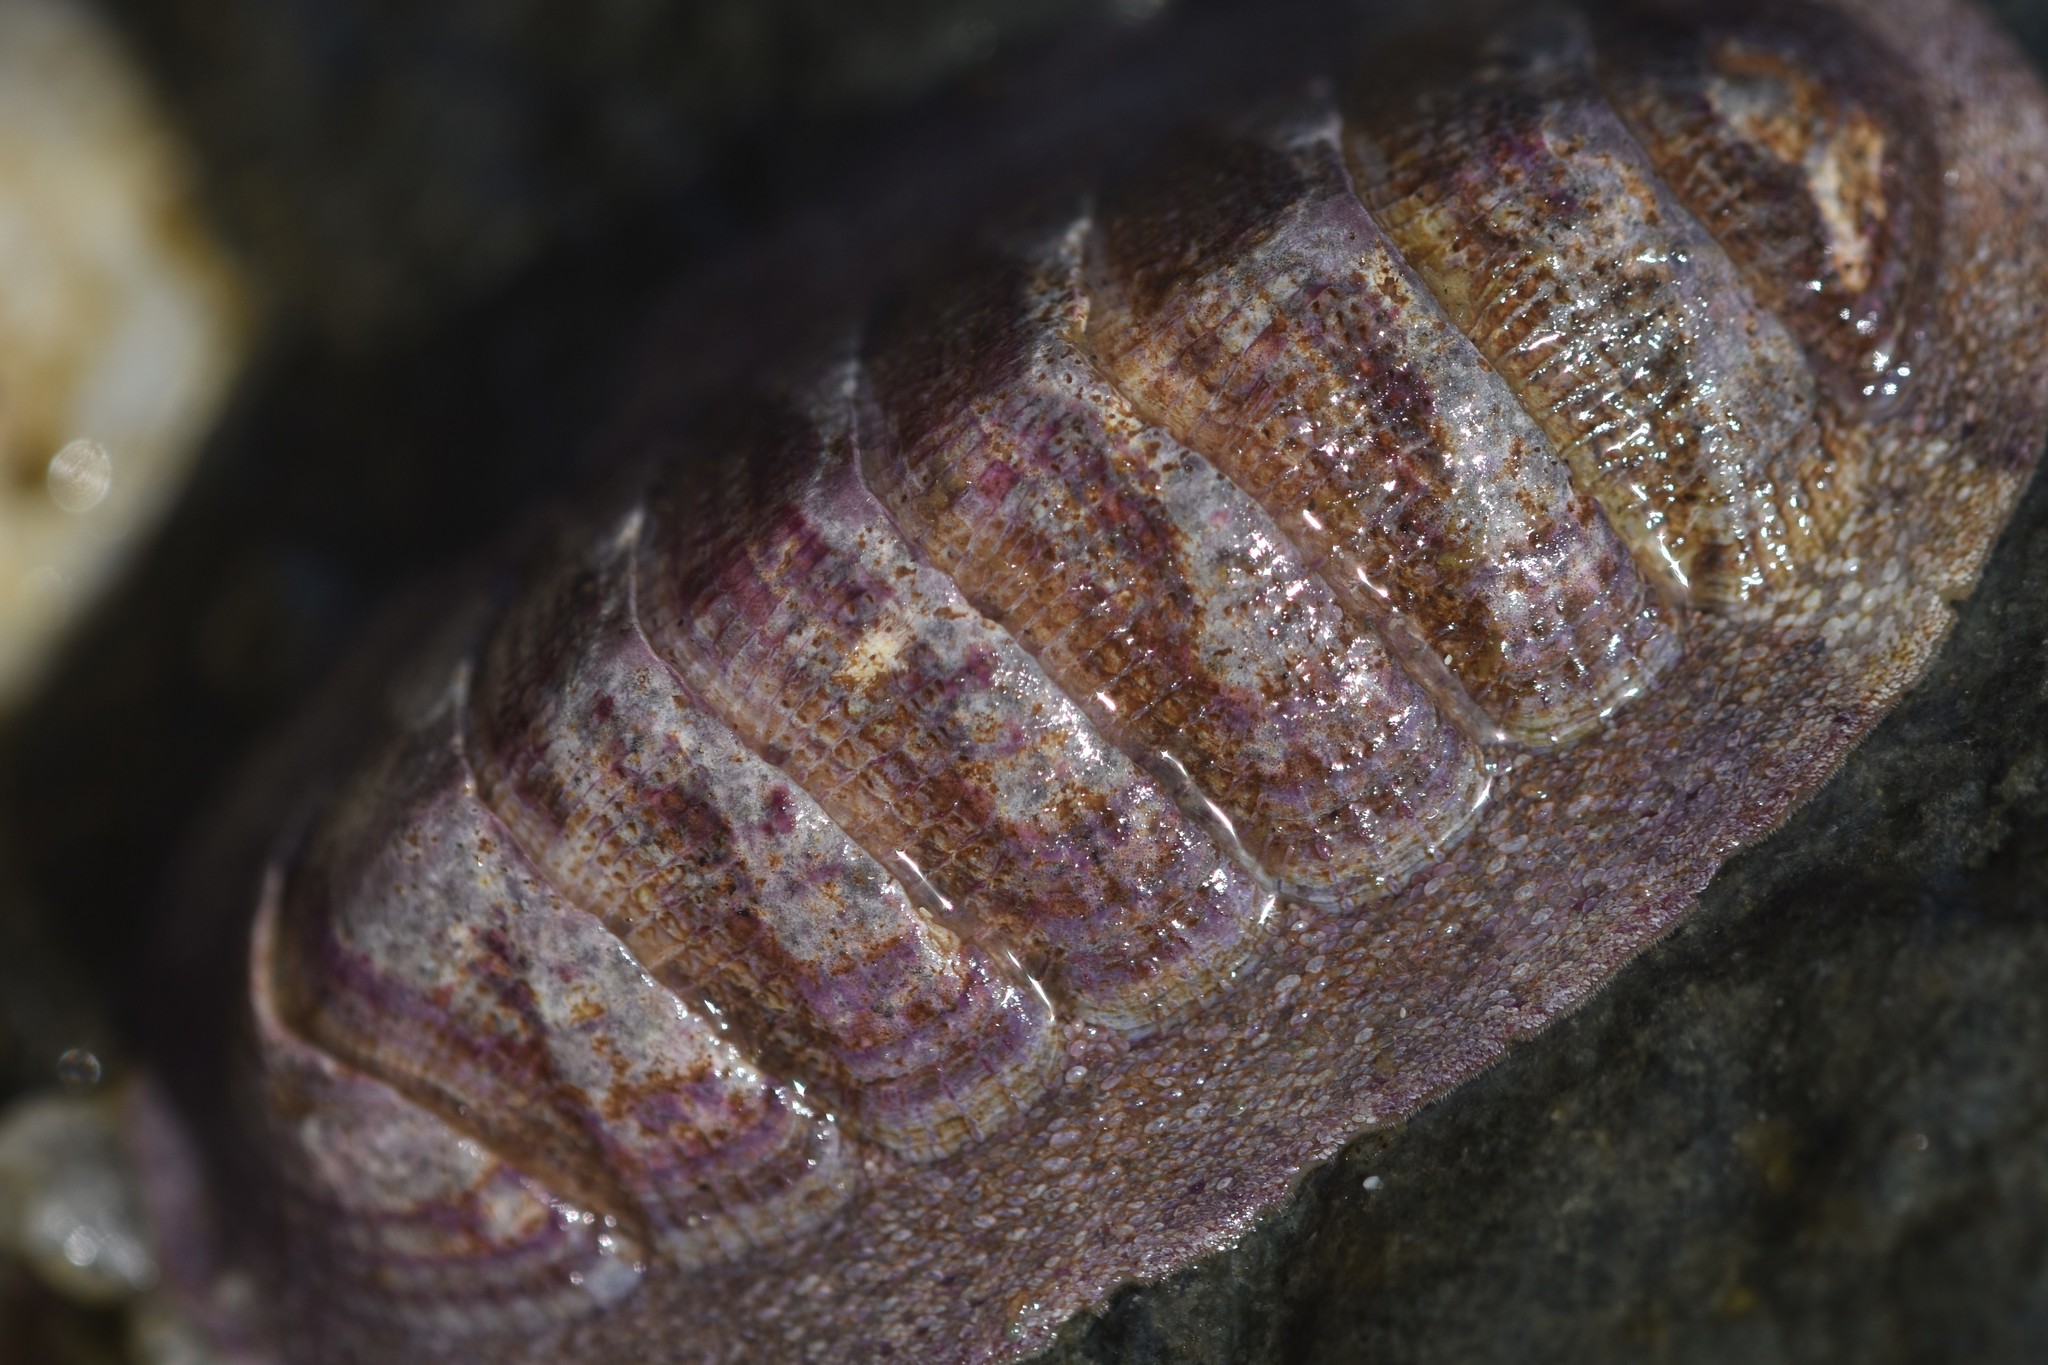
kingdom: Animalia
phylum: Mollusca
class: Polyplacophora
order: Chitonida
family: Ischnochitonidae
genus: Lepidozona
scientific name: Lepidozona mertensii
